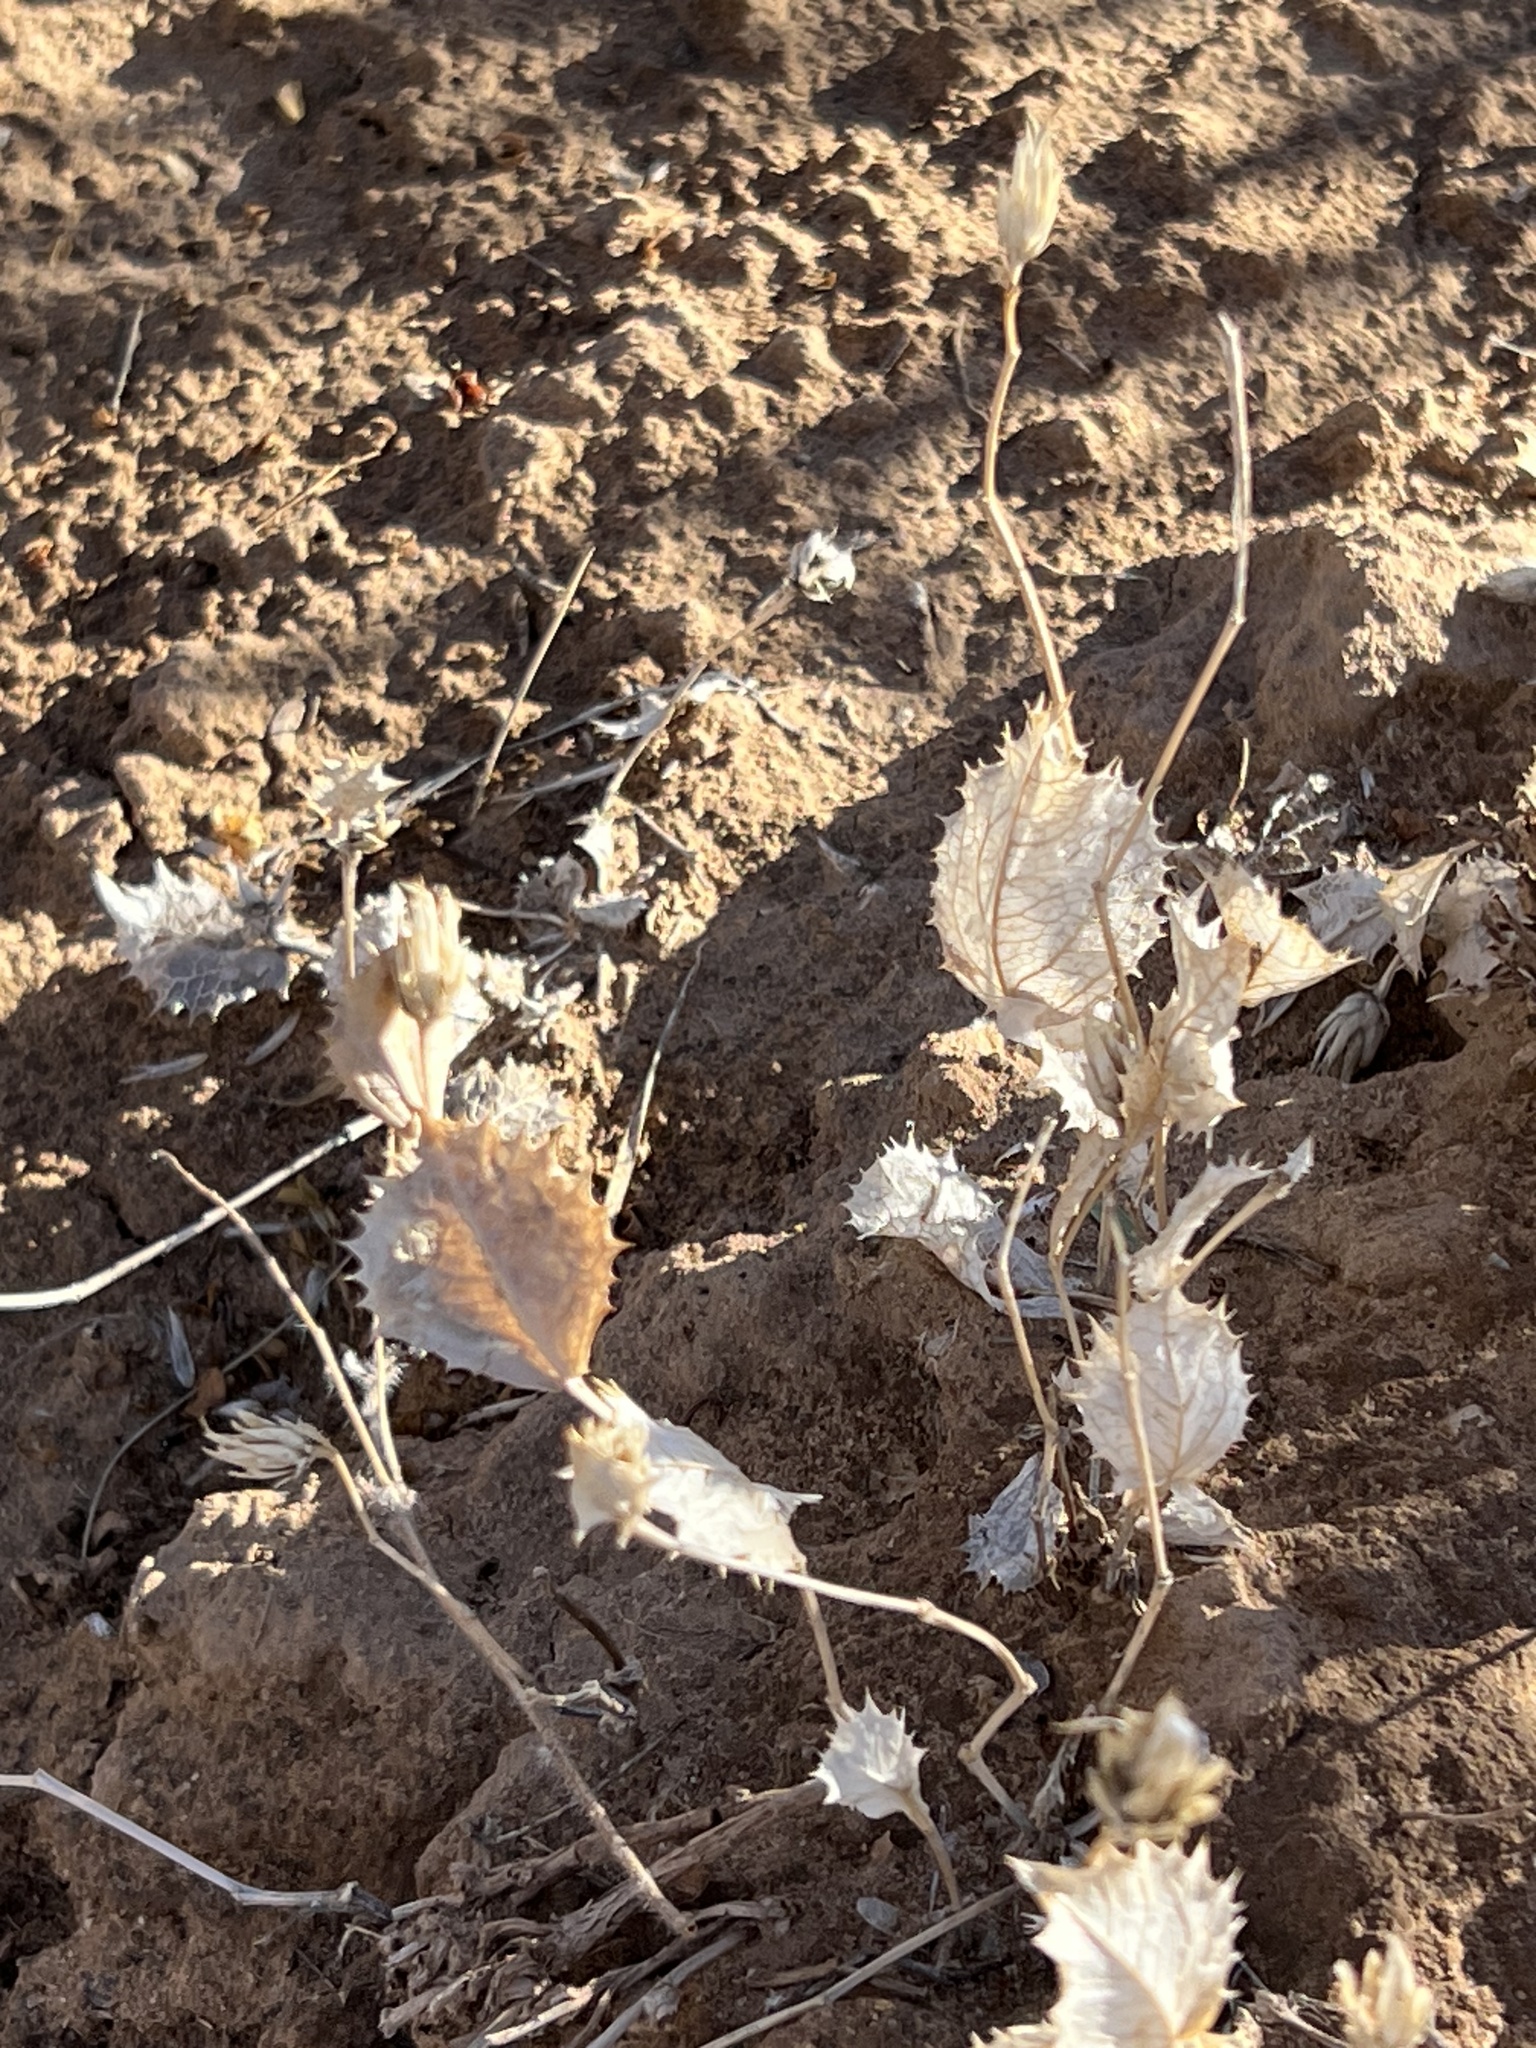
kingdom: Plantae
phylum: Tracheophyta
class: Magnoliopsida
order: Asterales
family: Asteraceae
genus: Acourtia
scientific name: Acourtia nana
